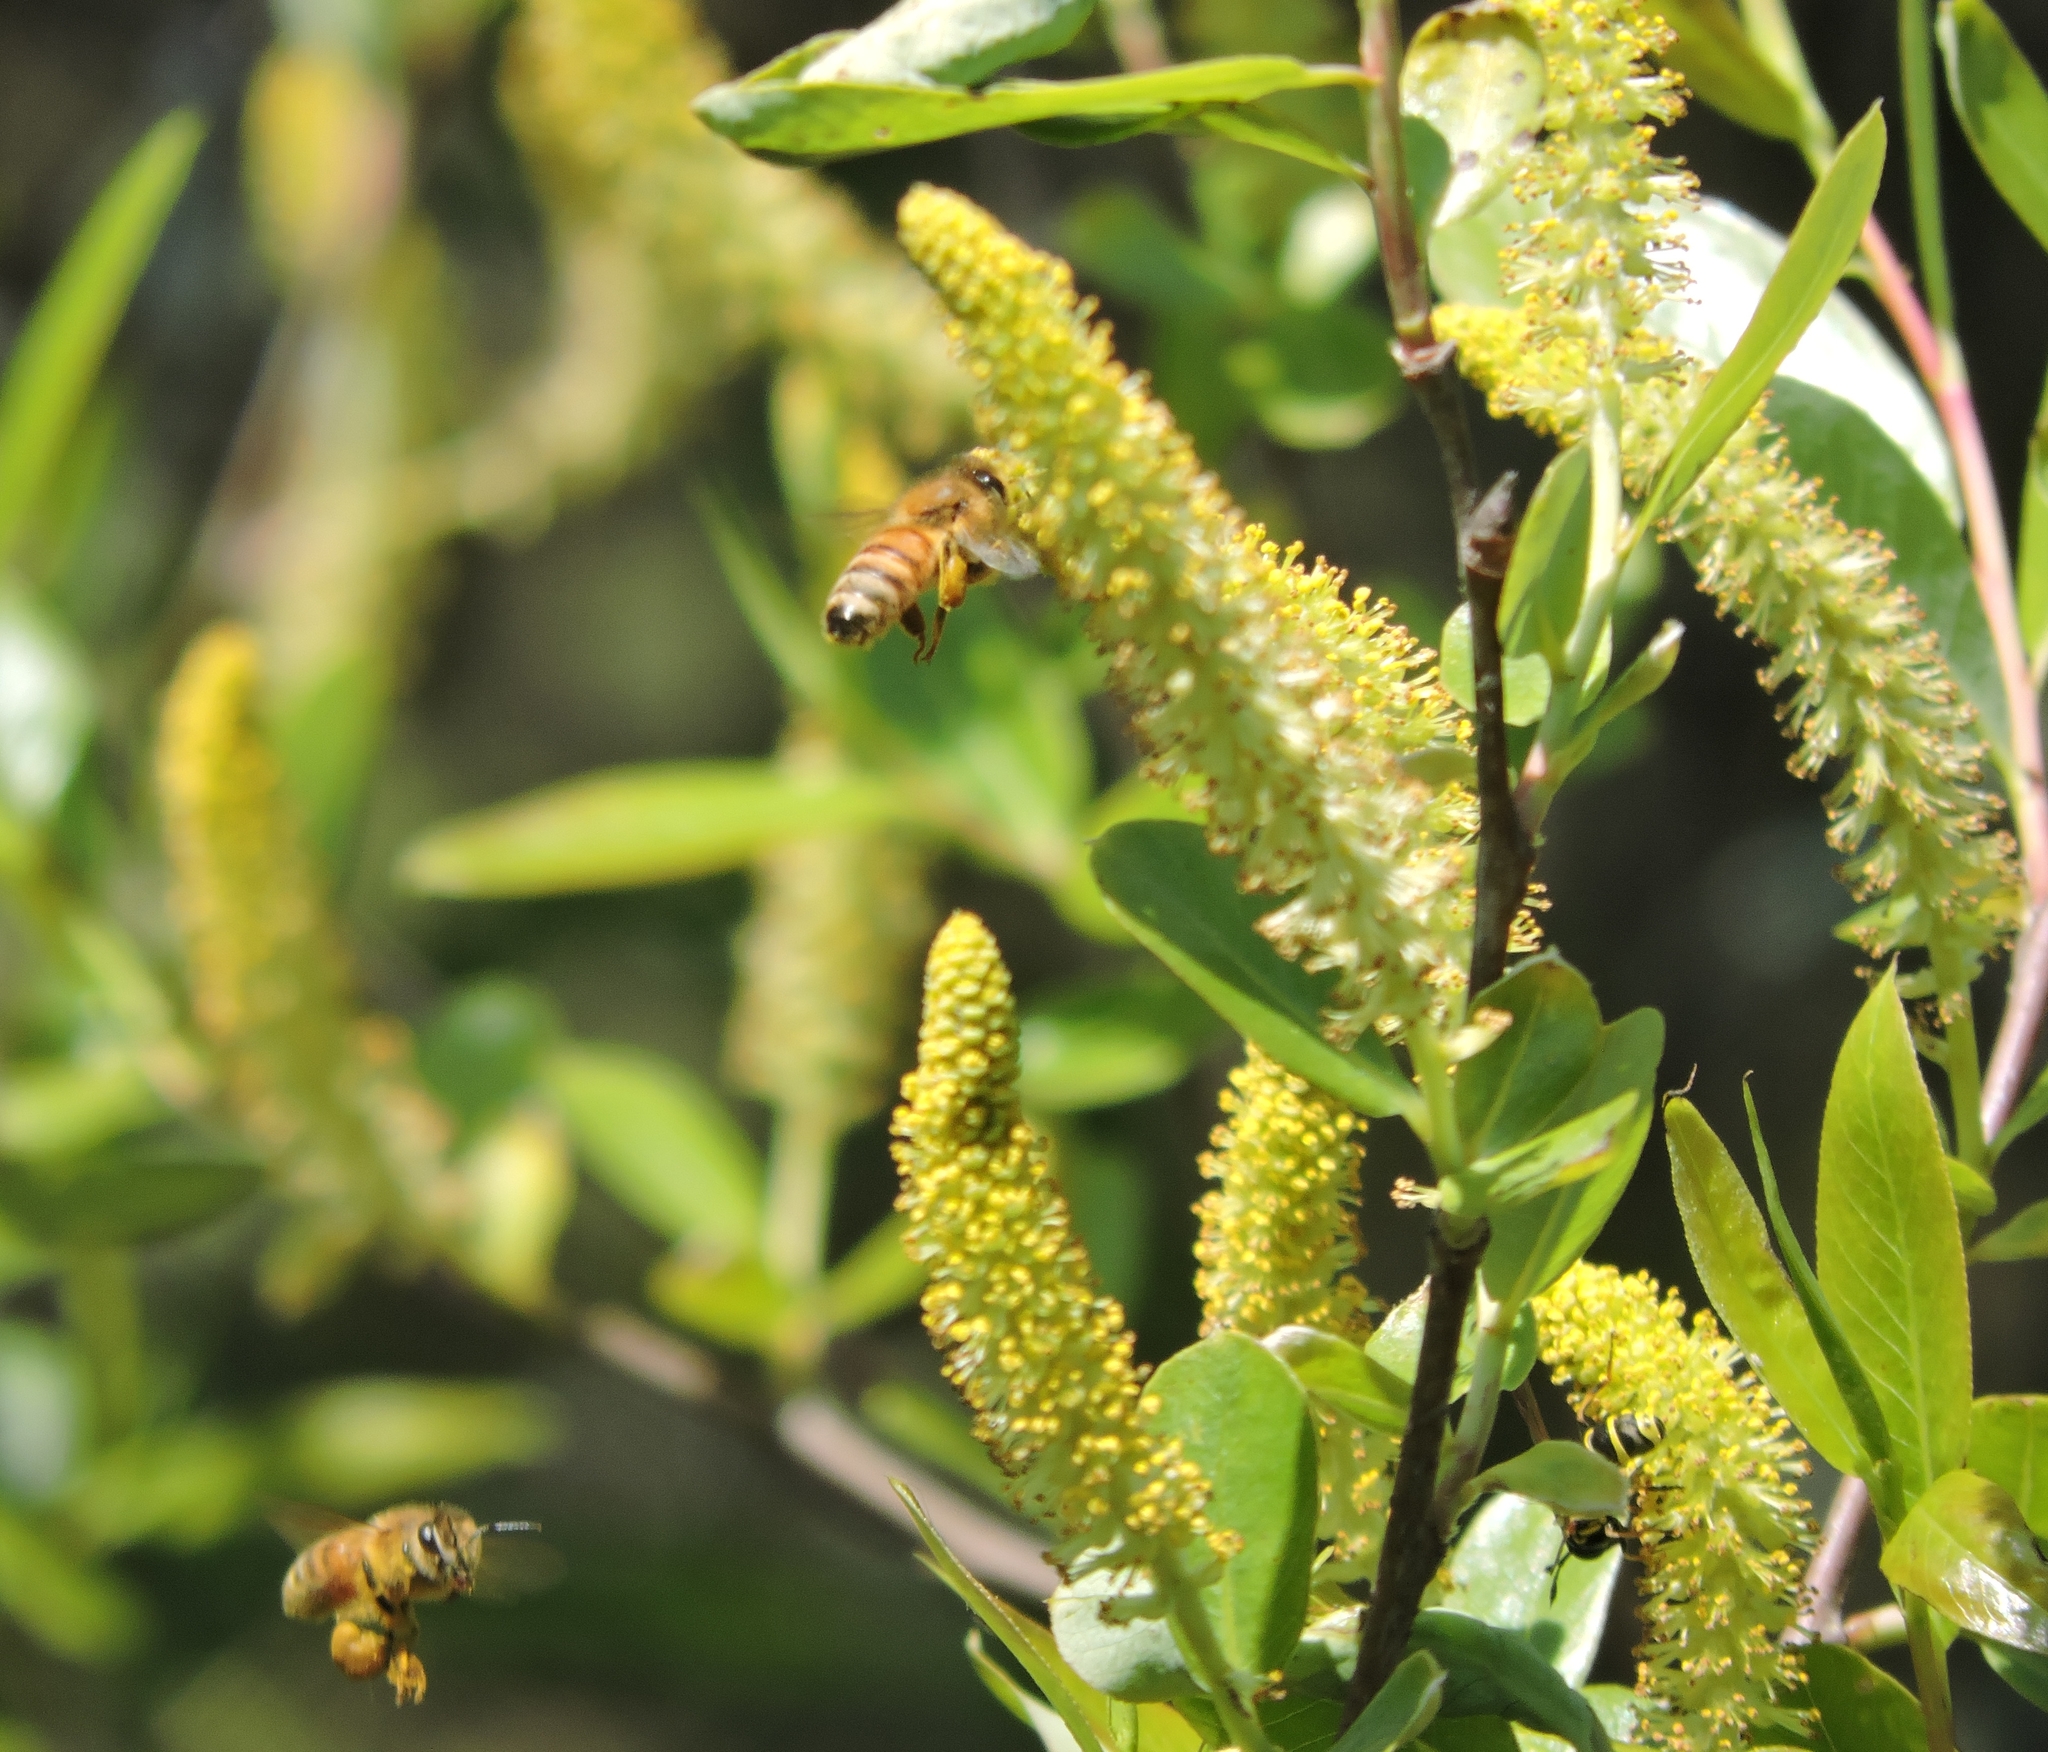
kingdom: Animalia
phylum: Arthropoda
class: Insecta
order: Hymenoptera
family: Apidae
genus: Apis
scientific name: Apis mellifera
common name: Honey bee
